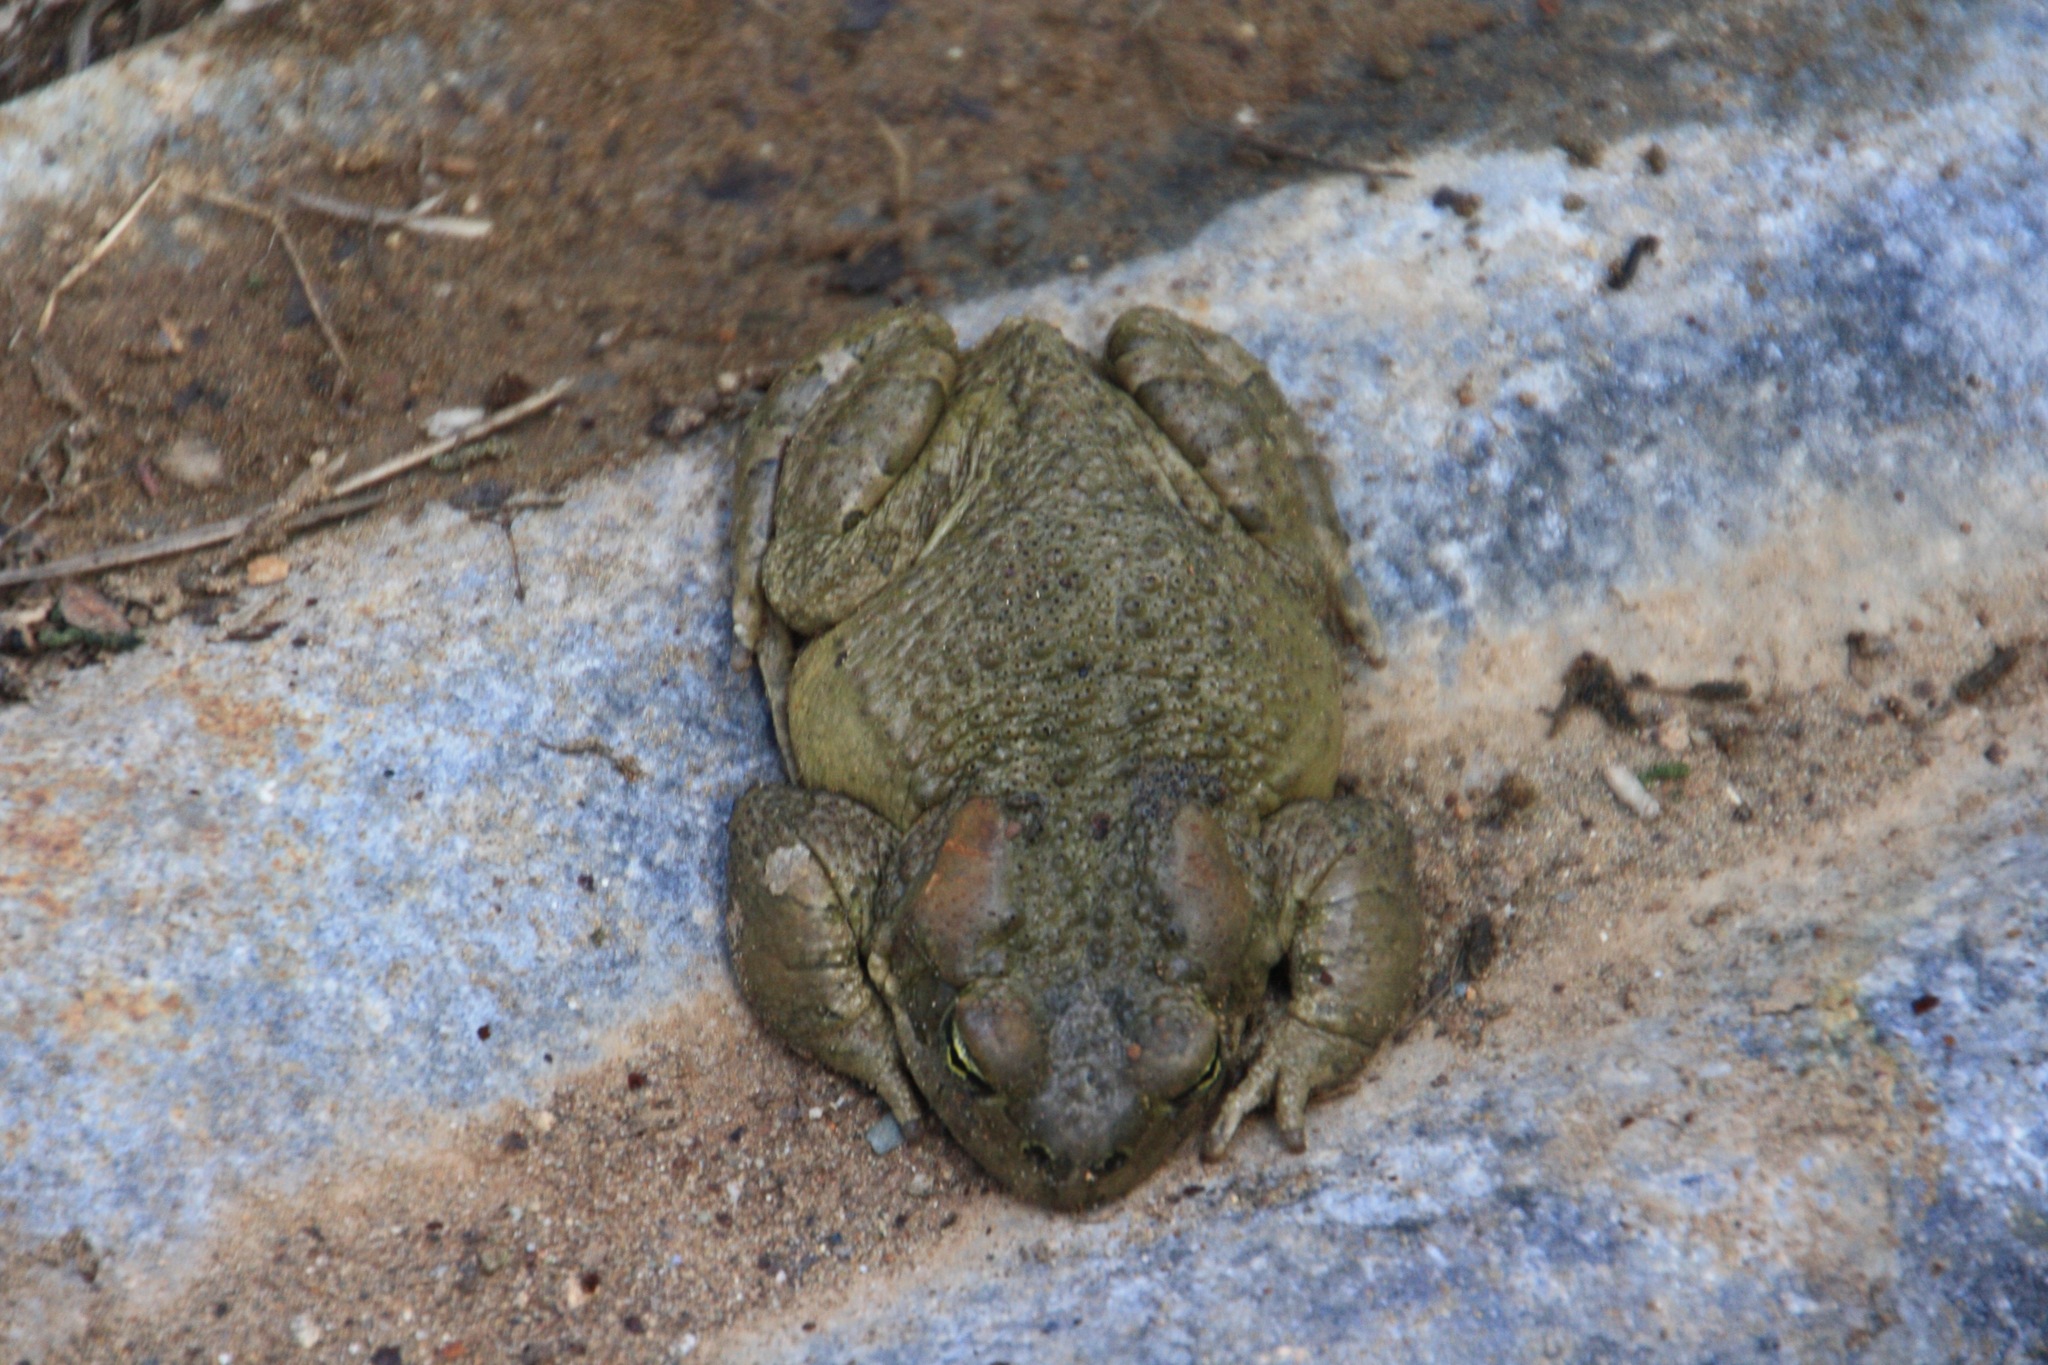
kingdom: Animalia
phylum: Chordata
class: Amphibia
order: Anura
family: Bufonidae
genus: Bufotes
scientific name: Bufotes cypriensis
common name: Cyprus green toad
